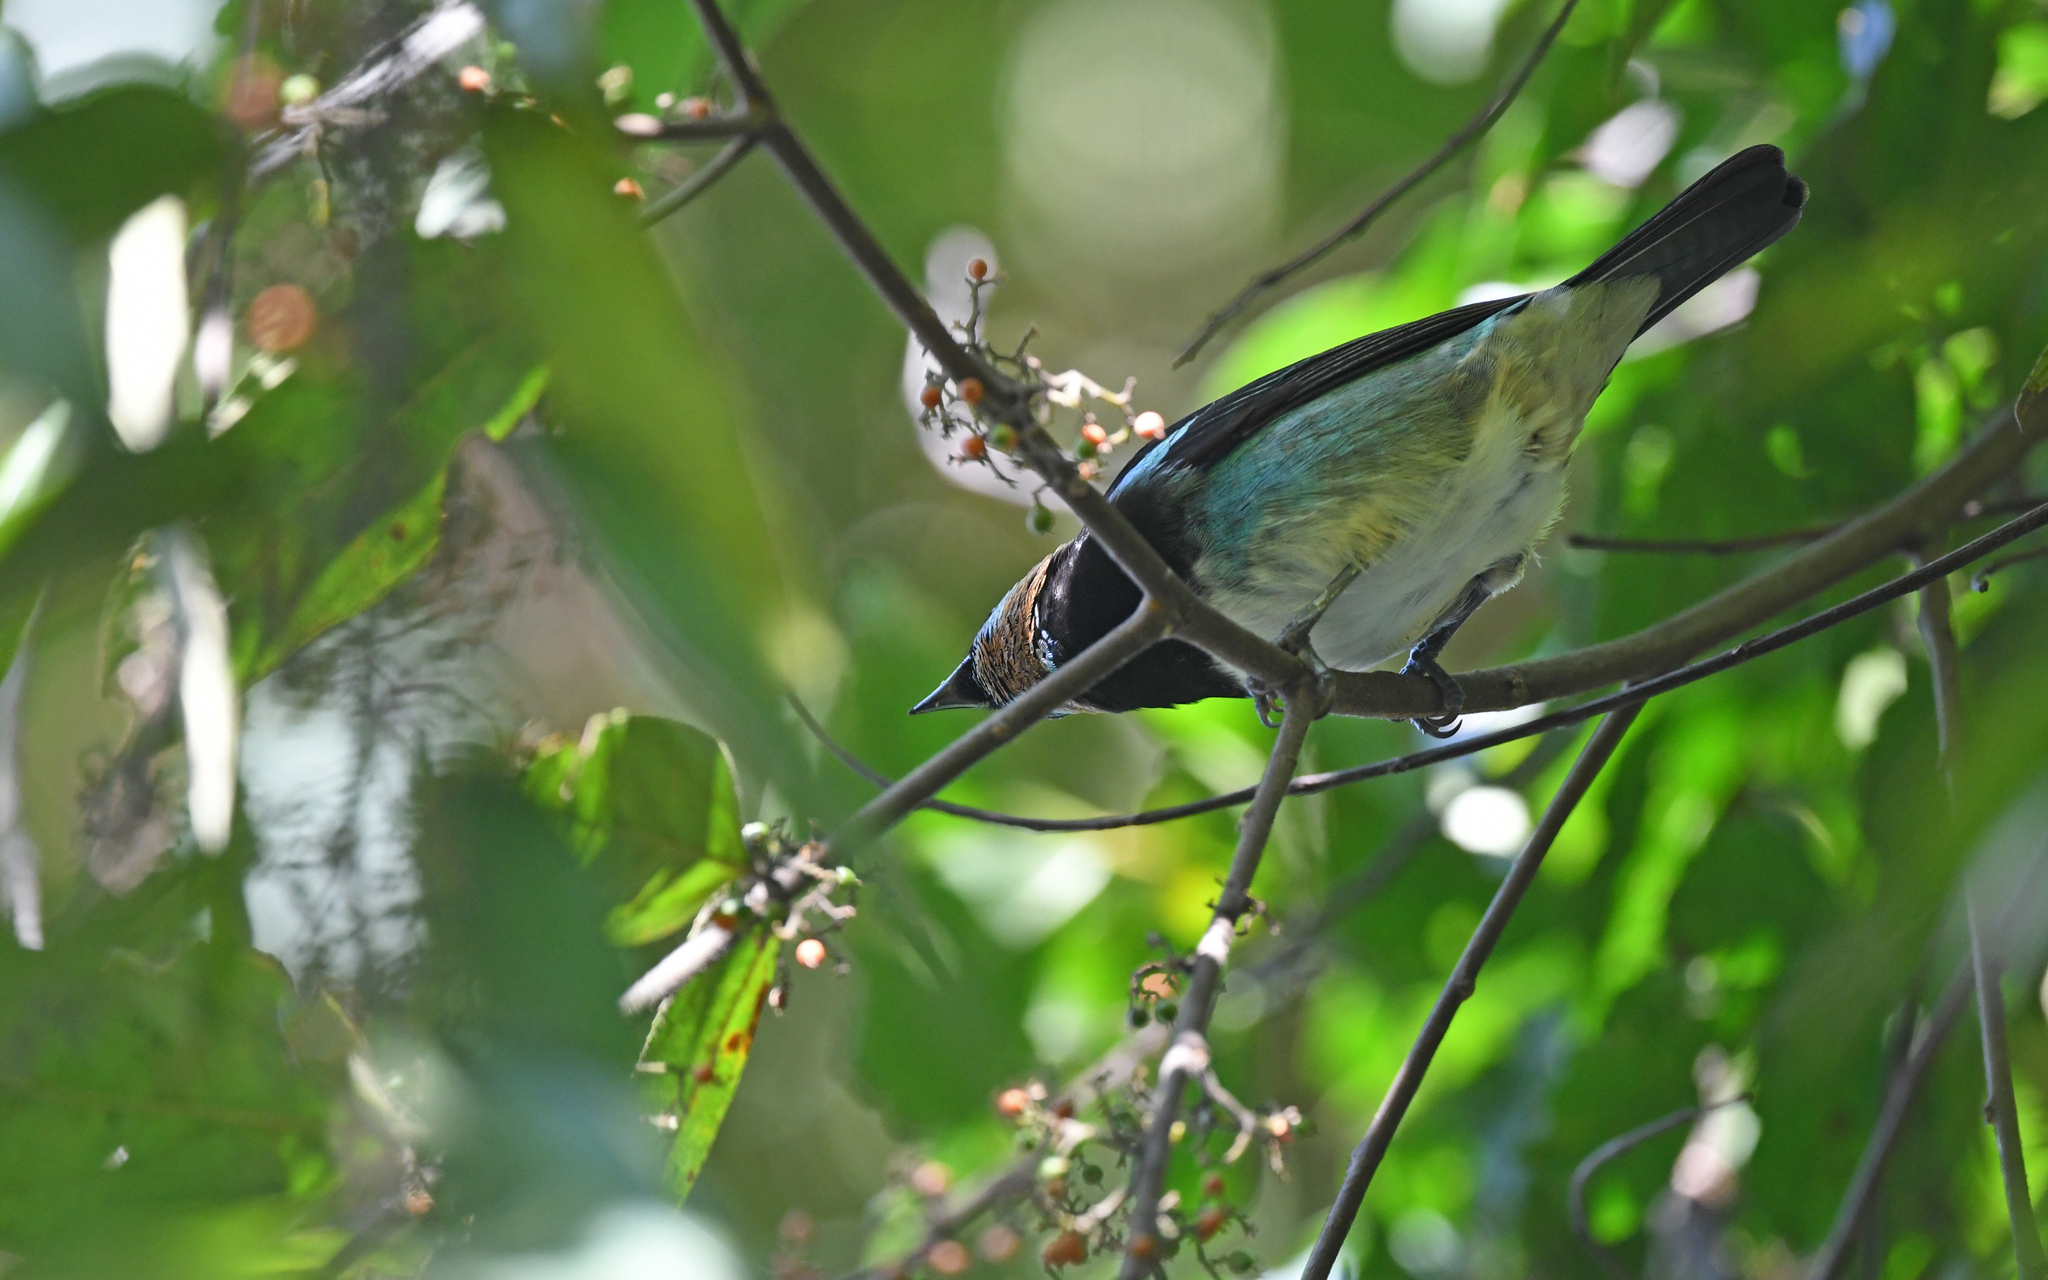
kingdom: Animalia
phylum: Chordata
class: Aves
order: Passeriformes
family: Thraupidae
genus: Stilpnia
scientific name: Stilpnia larvata
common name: Golden-hooded tanager
